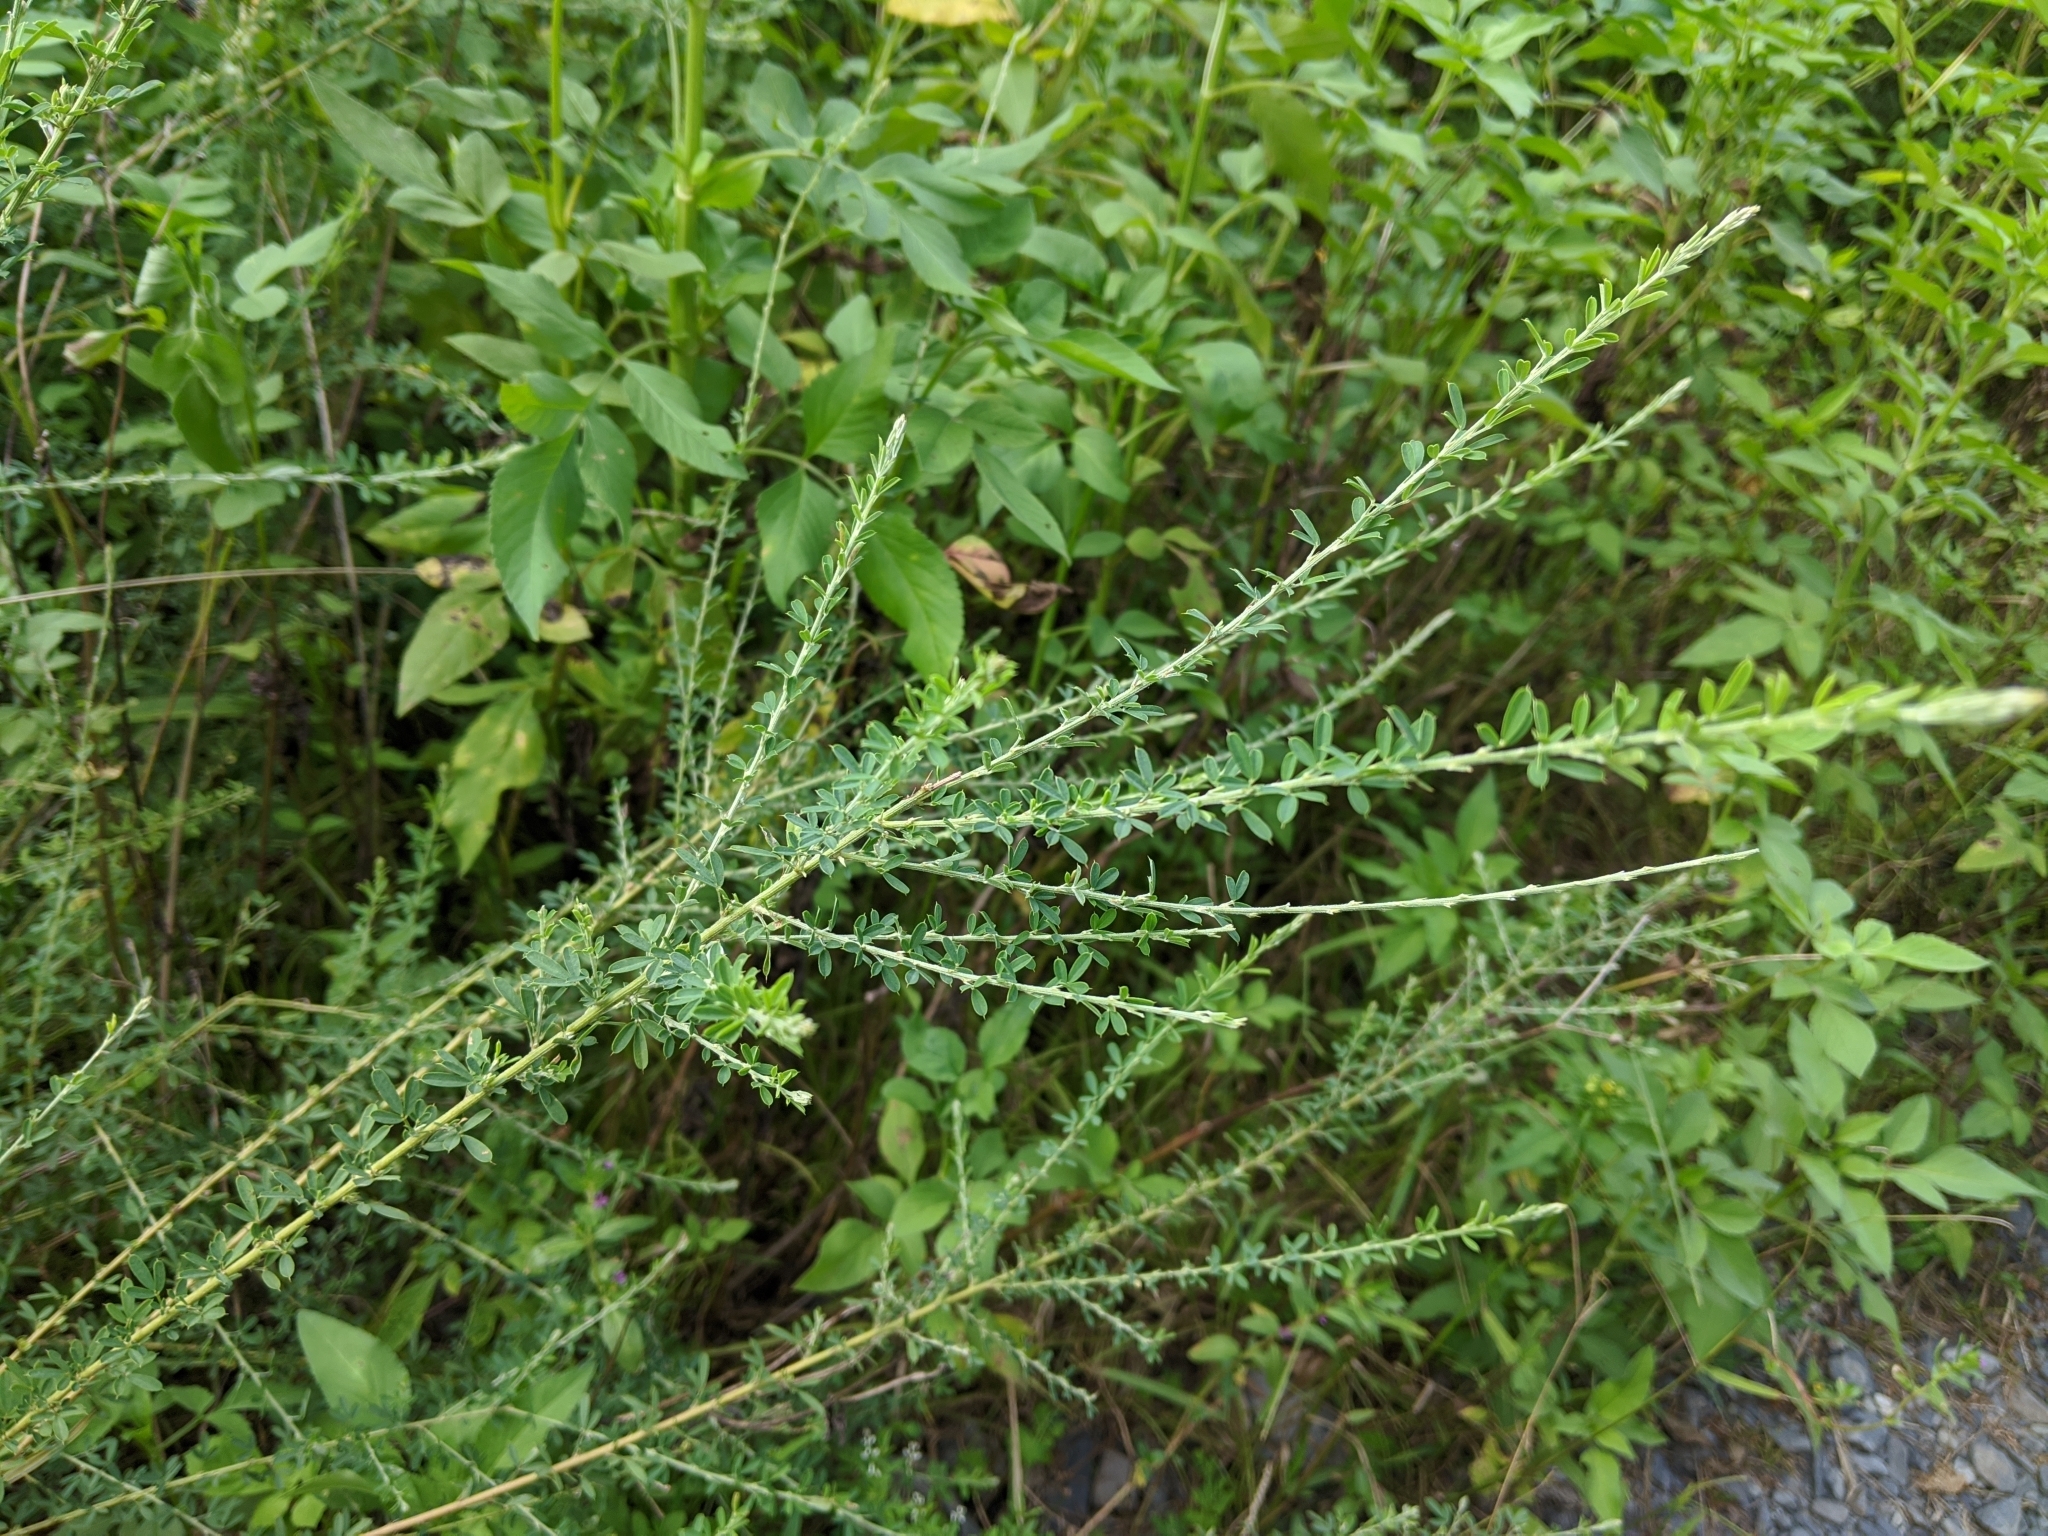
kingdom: Plantae
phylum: Tracheophyta
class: Magnoliopsida
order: Fabales
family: Fabaceae
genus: Lespedeza
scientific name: Lespedeza cuneata
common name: Chinese bush-clover
